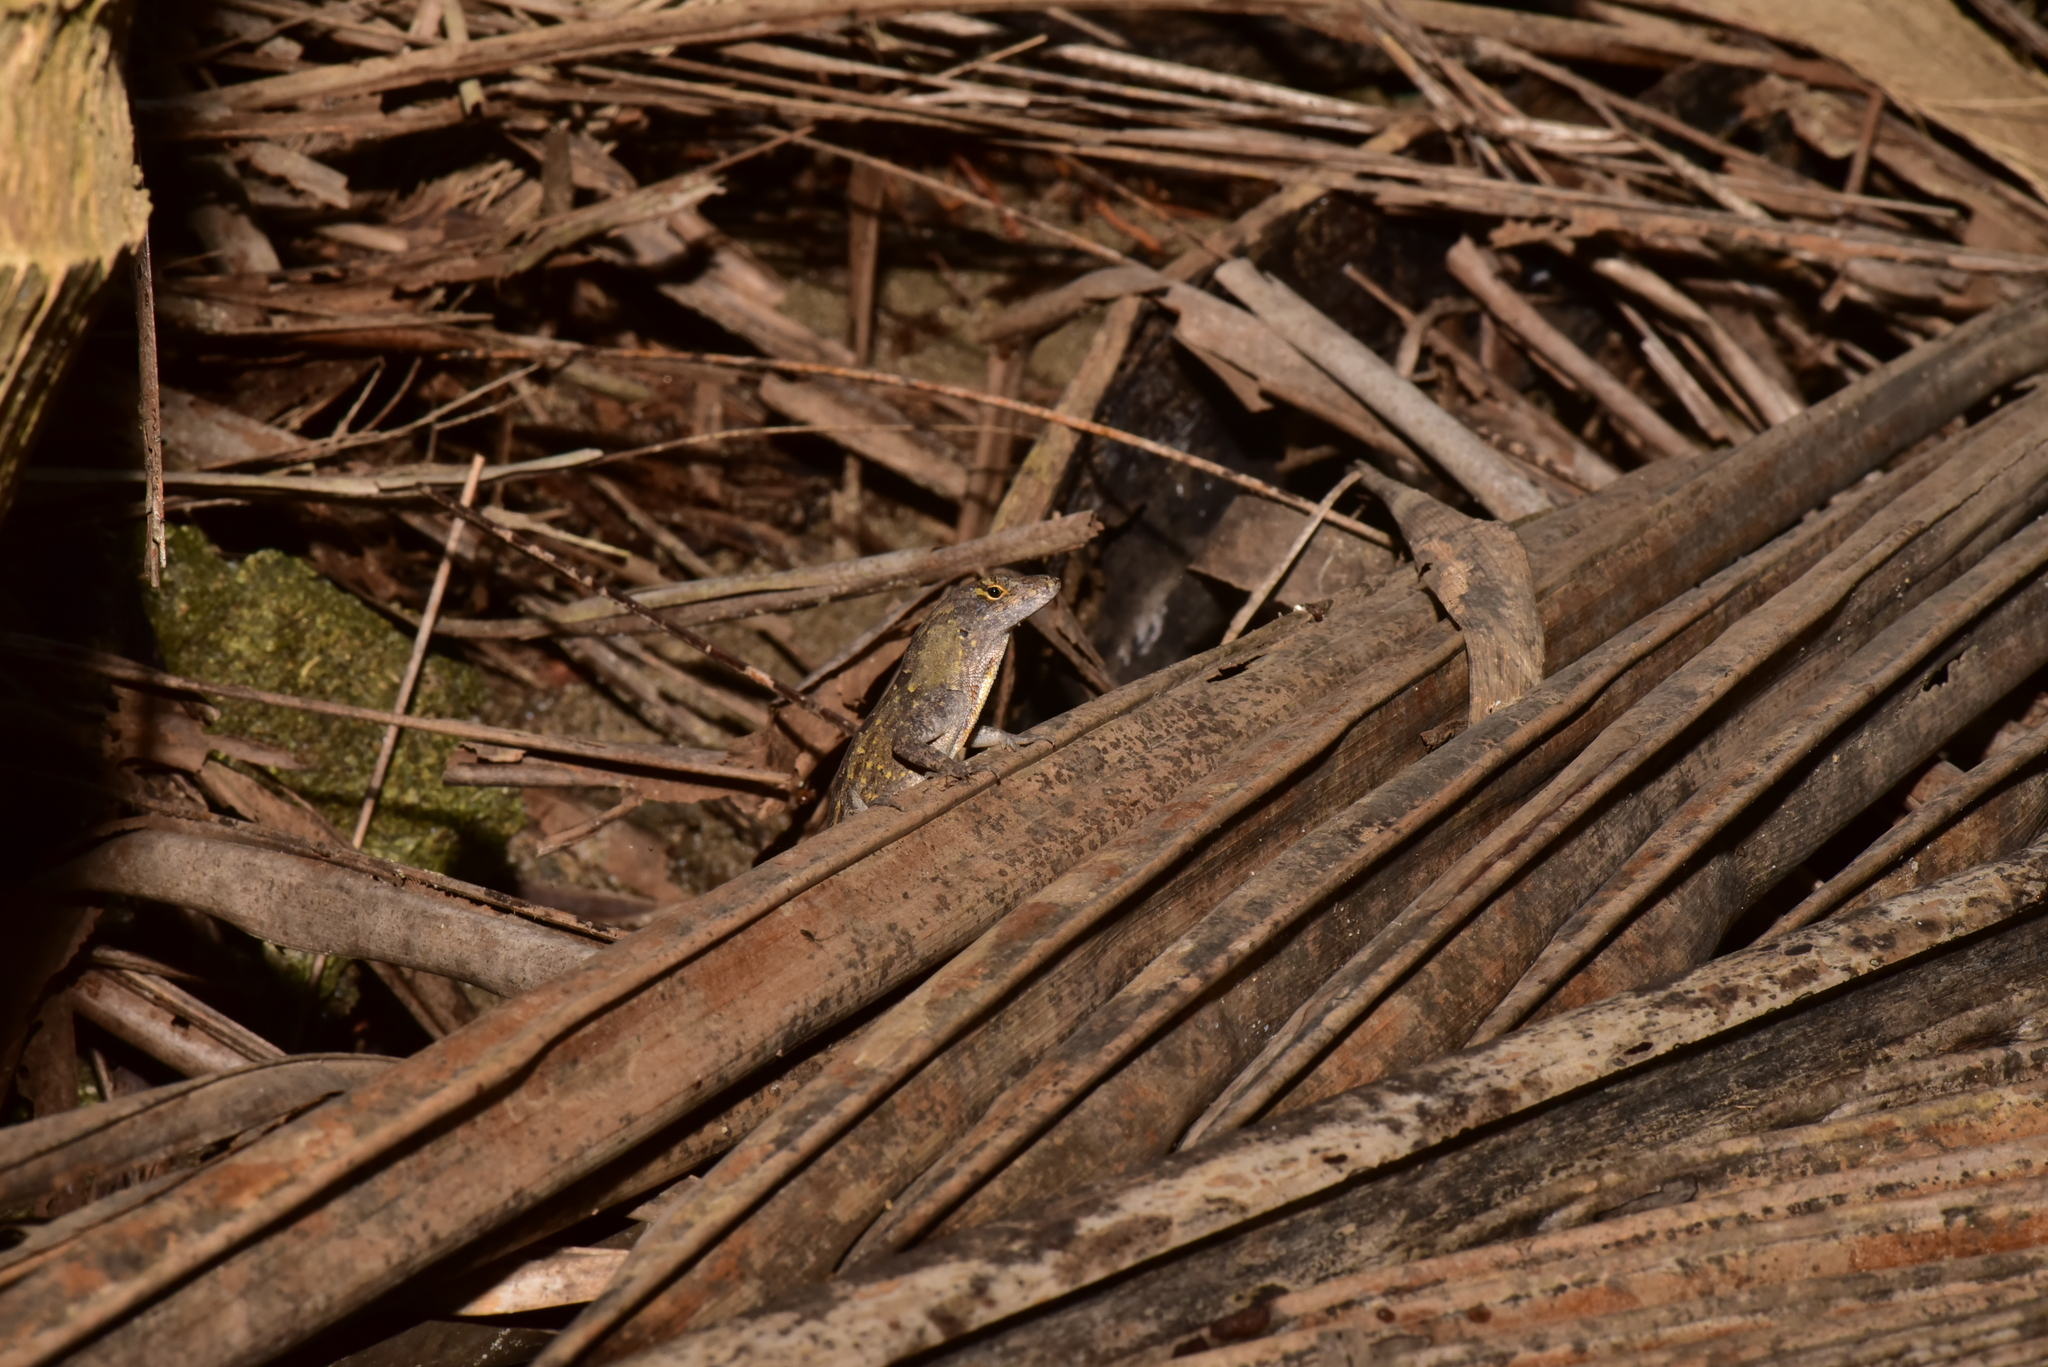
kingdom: Animalia
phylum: Chordata
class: Squamata
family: Dactyloidae
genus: Anolis
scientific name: Anolis sagrei
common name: Brown anole
